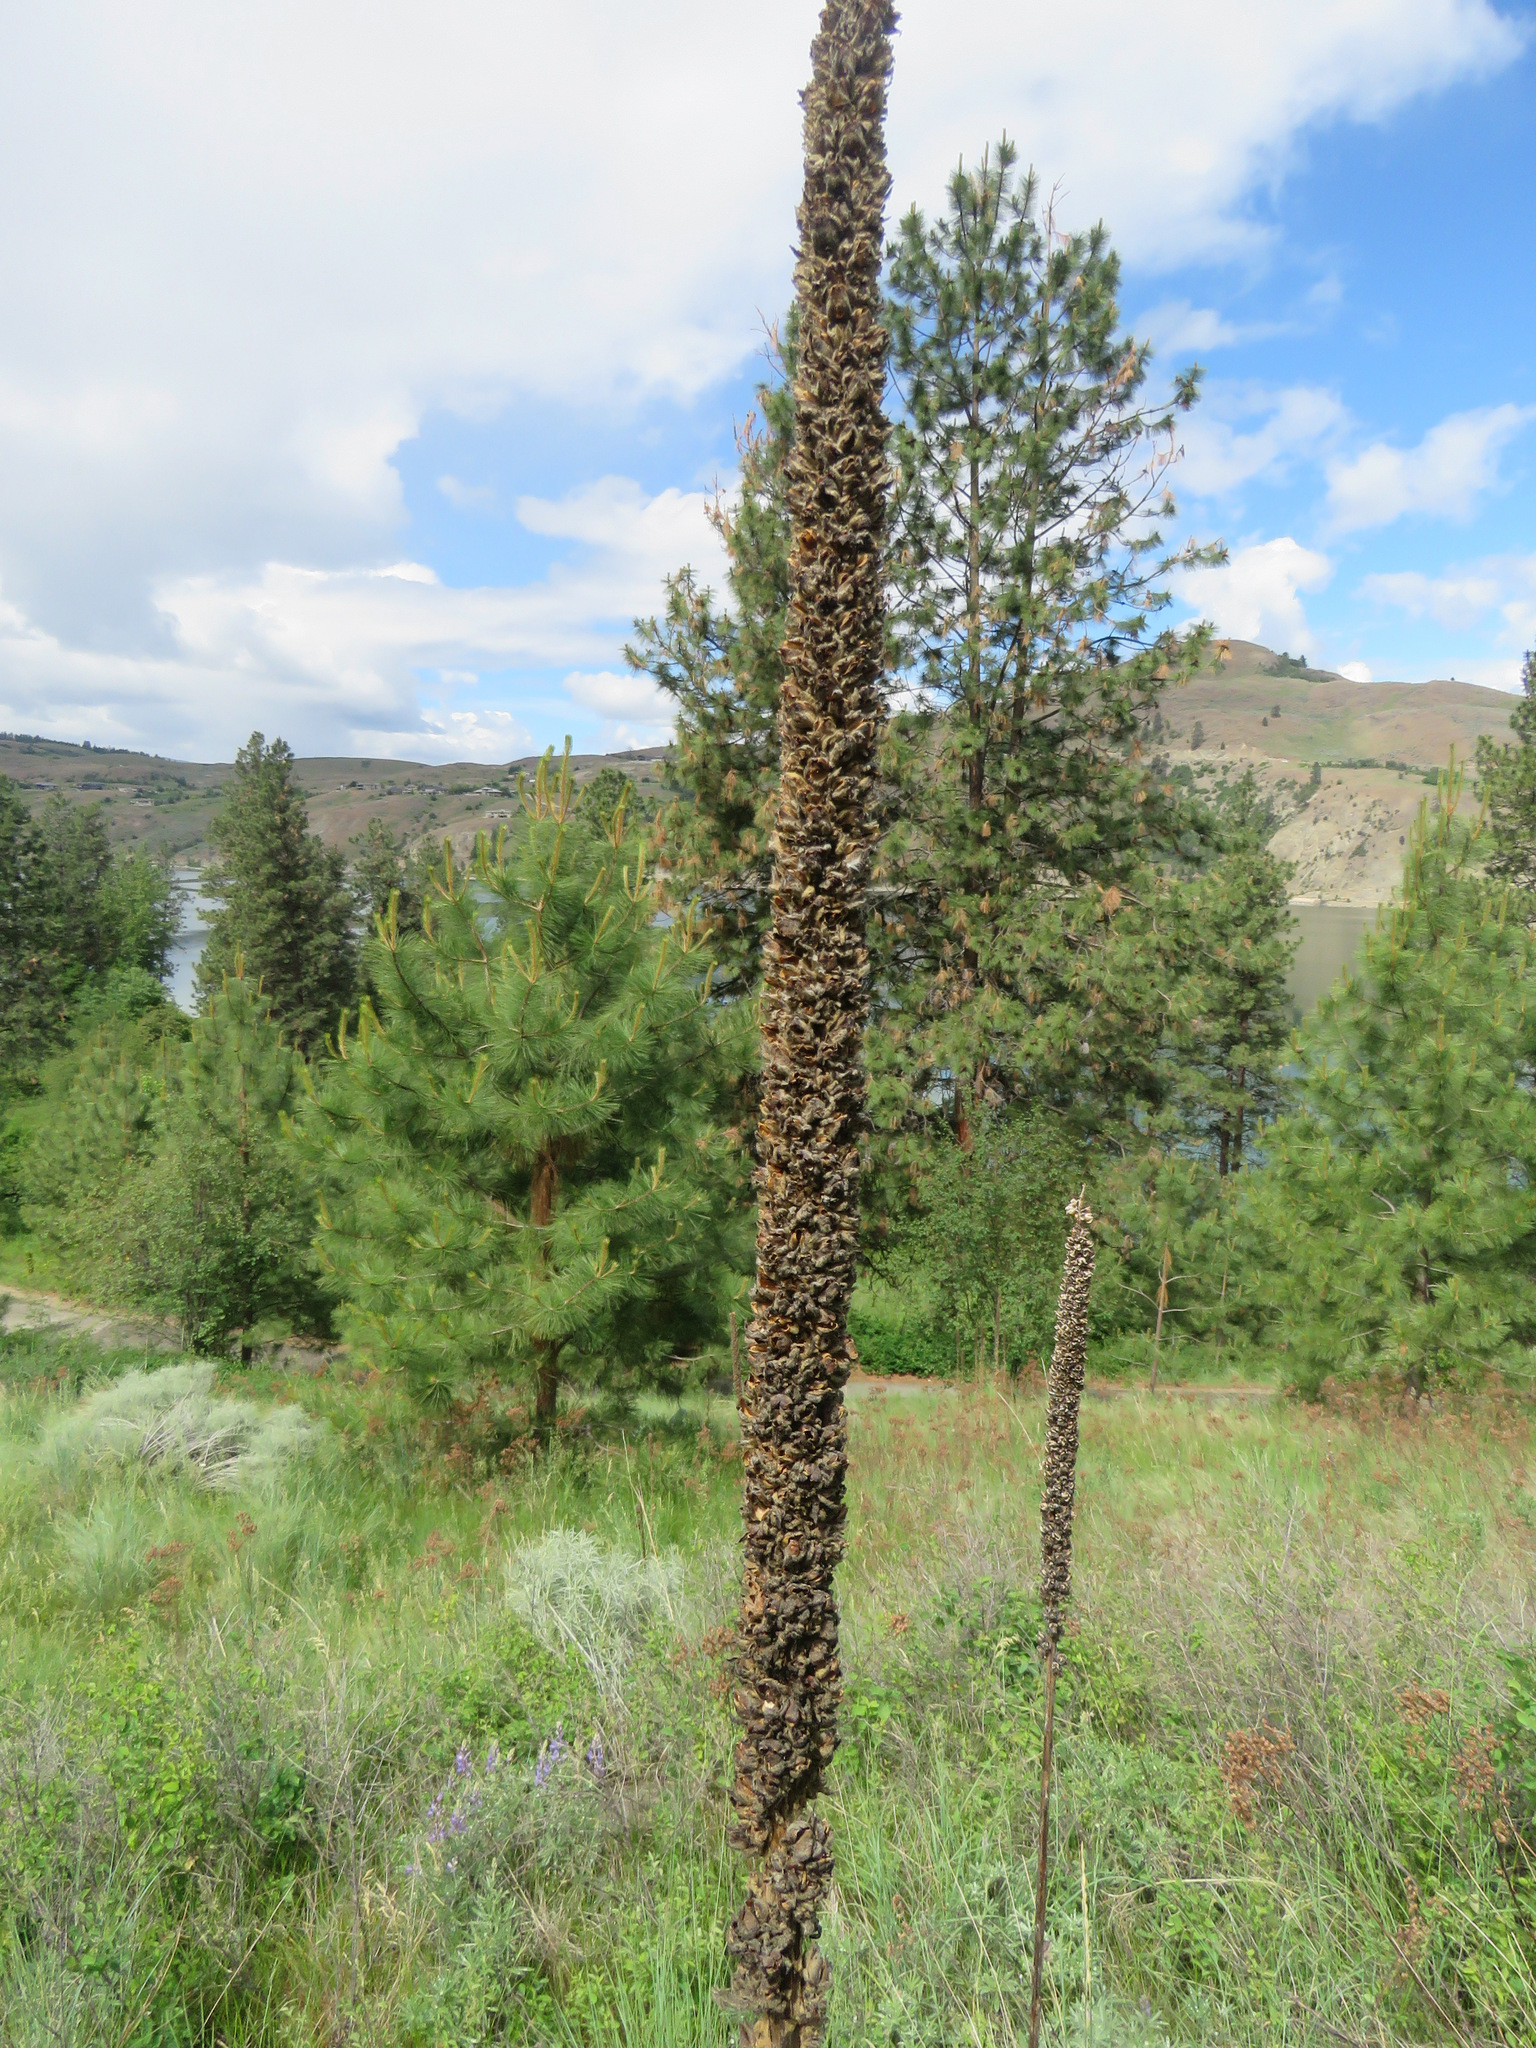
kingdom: Plantae
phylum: Tracheophyta
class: Magnoliopsida
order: Lamiales
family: Scrophulariaceae
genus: Verbascum
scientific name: Verbascum thapsus
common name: Common mullein
